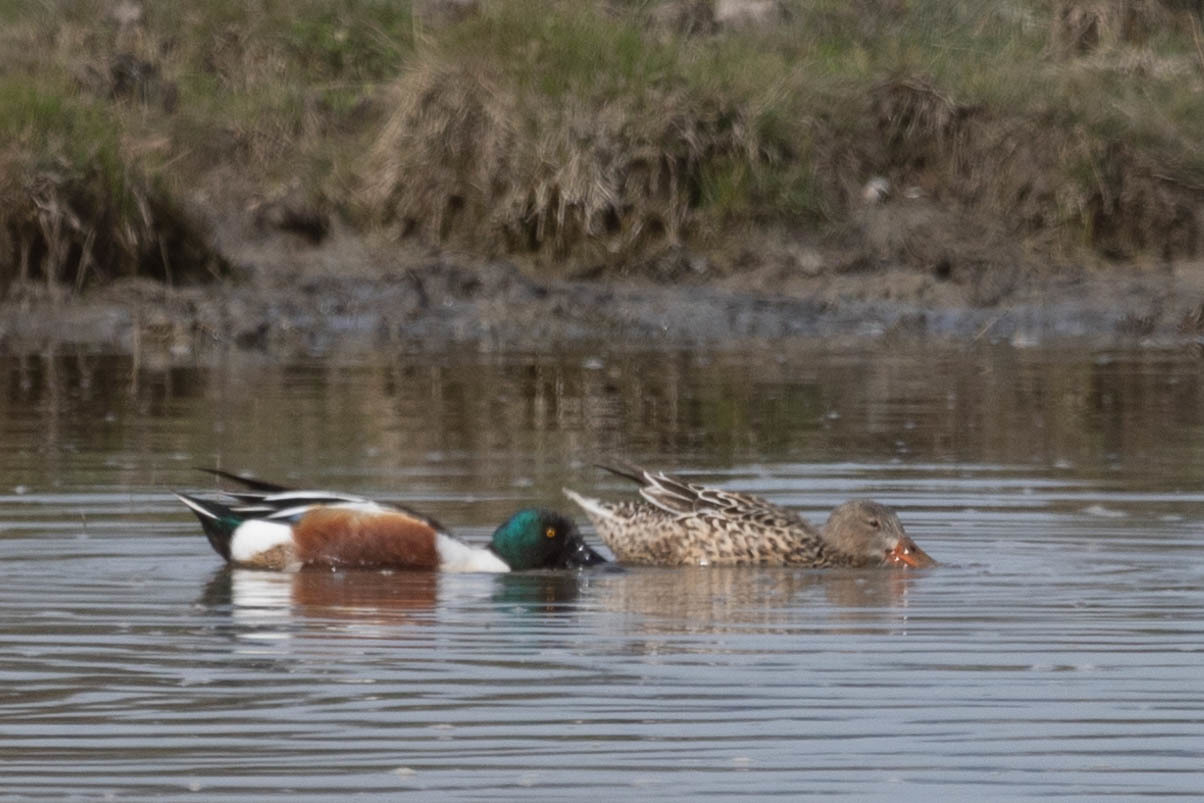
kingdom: Animalia
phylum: Chordata
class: Aves
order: Anseriformes
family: Anatidae
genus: Spatula
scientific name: Spatula clypeata
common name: Northern shoveler
